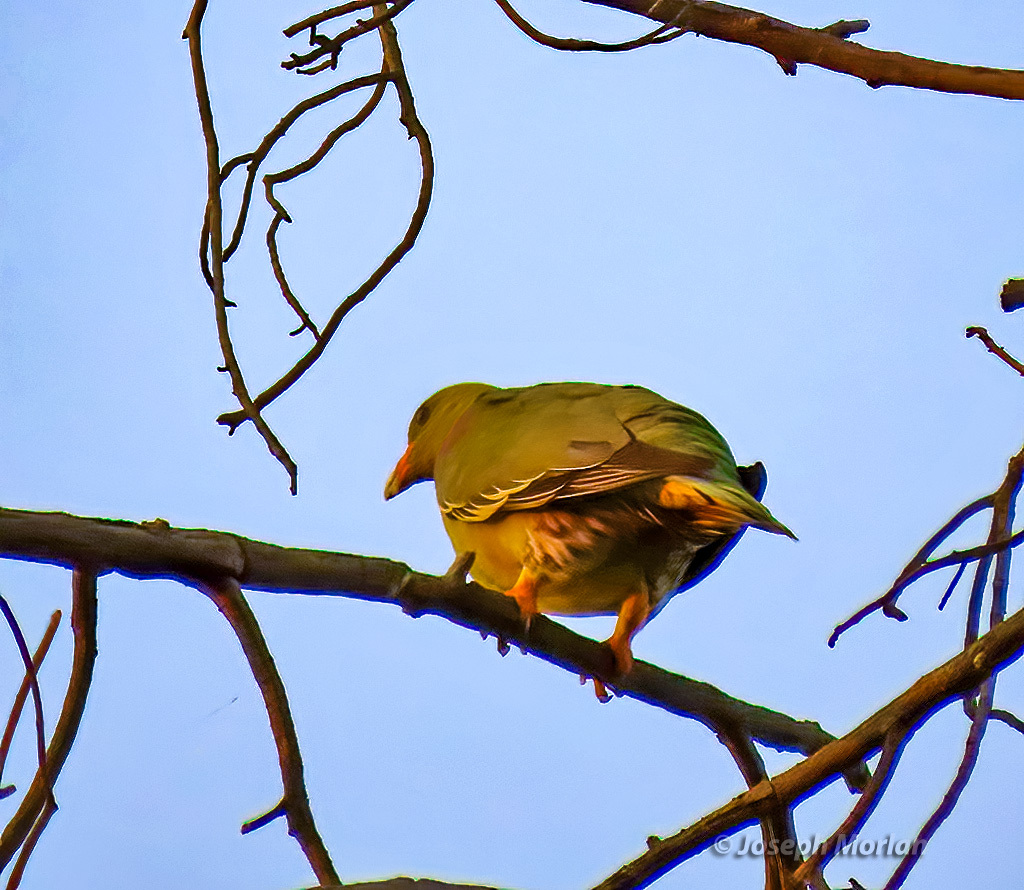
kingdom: Animalia
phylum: Chordata
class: Aves
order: Columbiformes
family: Columbidae
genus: Treron
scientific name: Treron calvus
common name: African green pigeon
